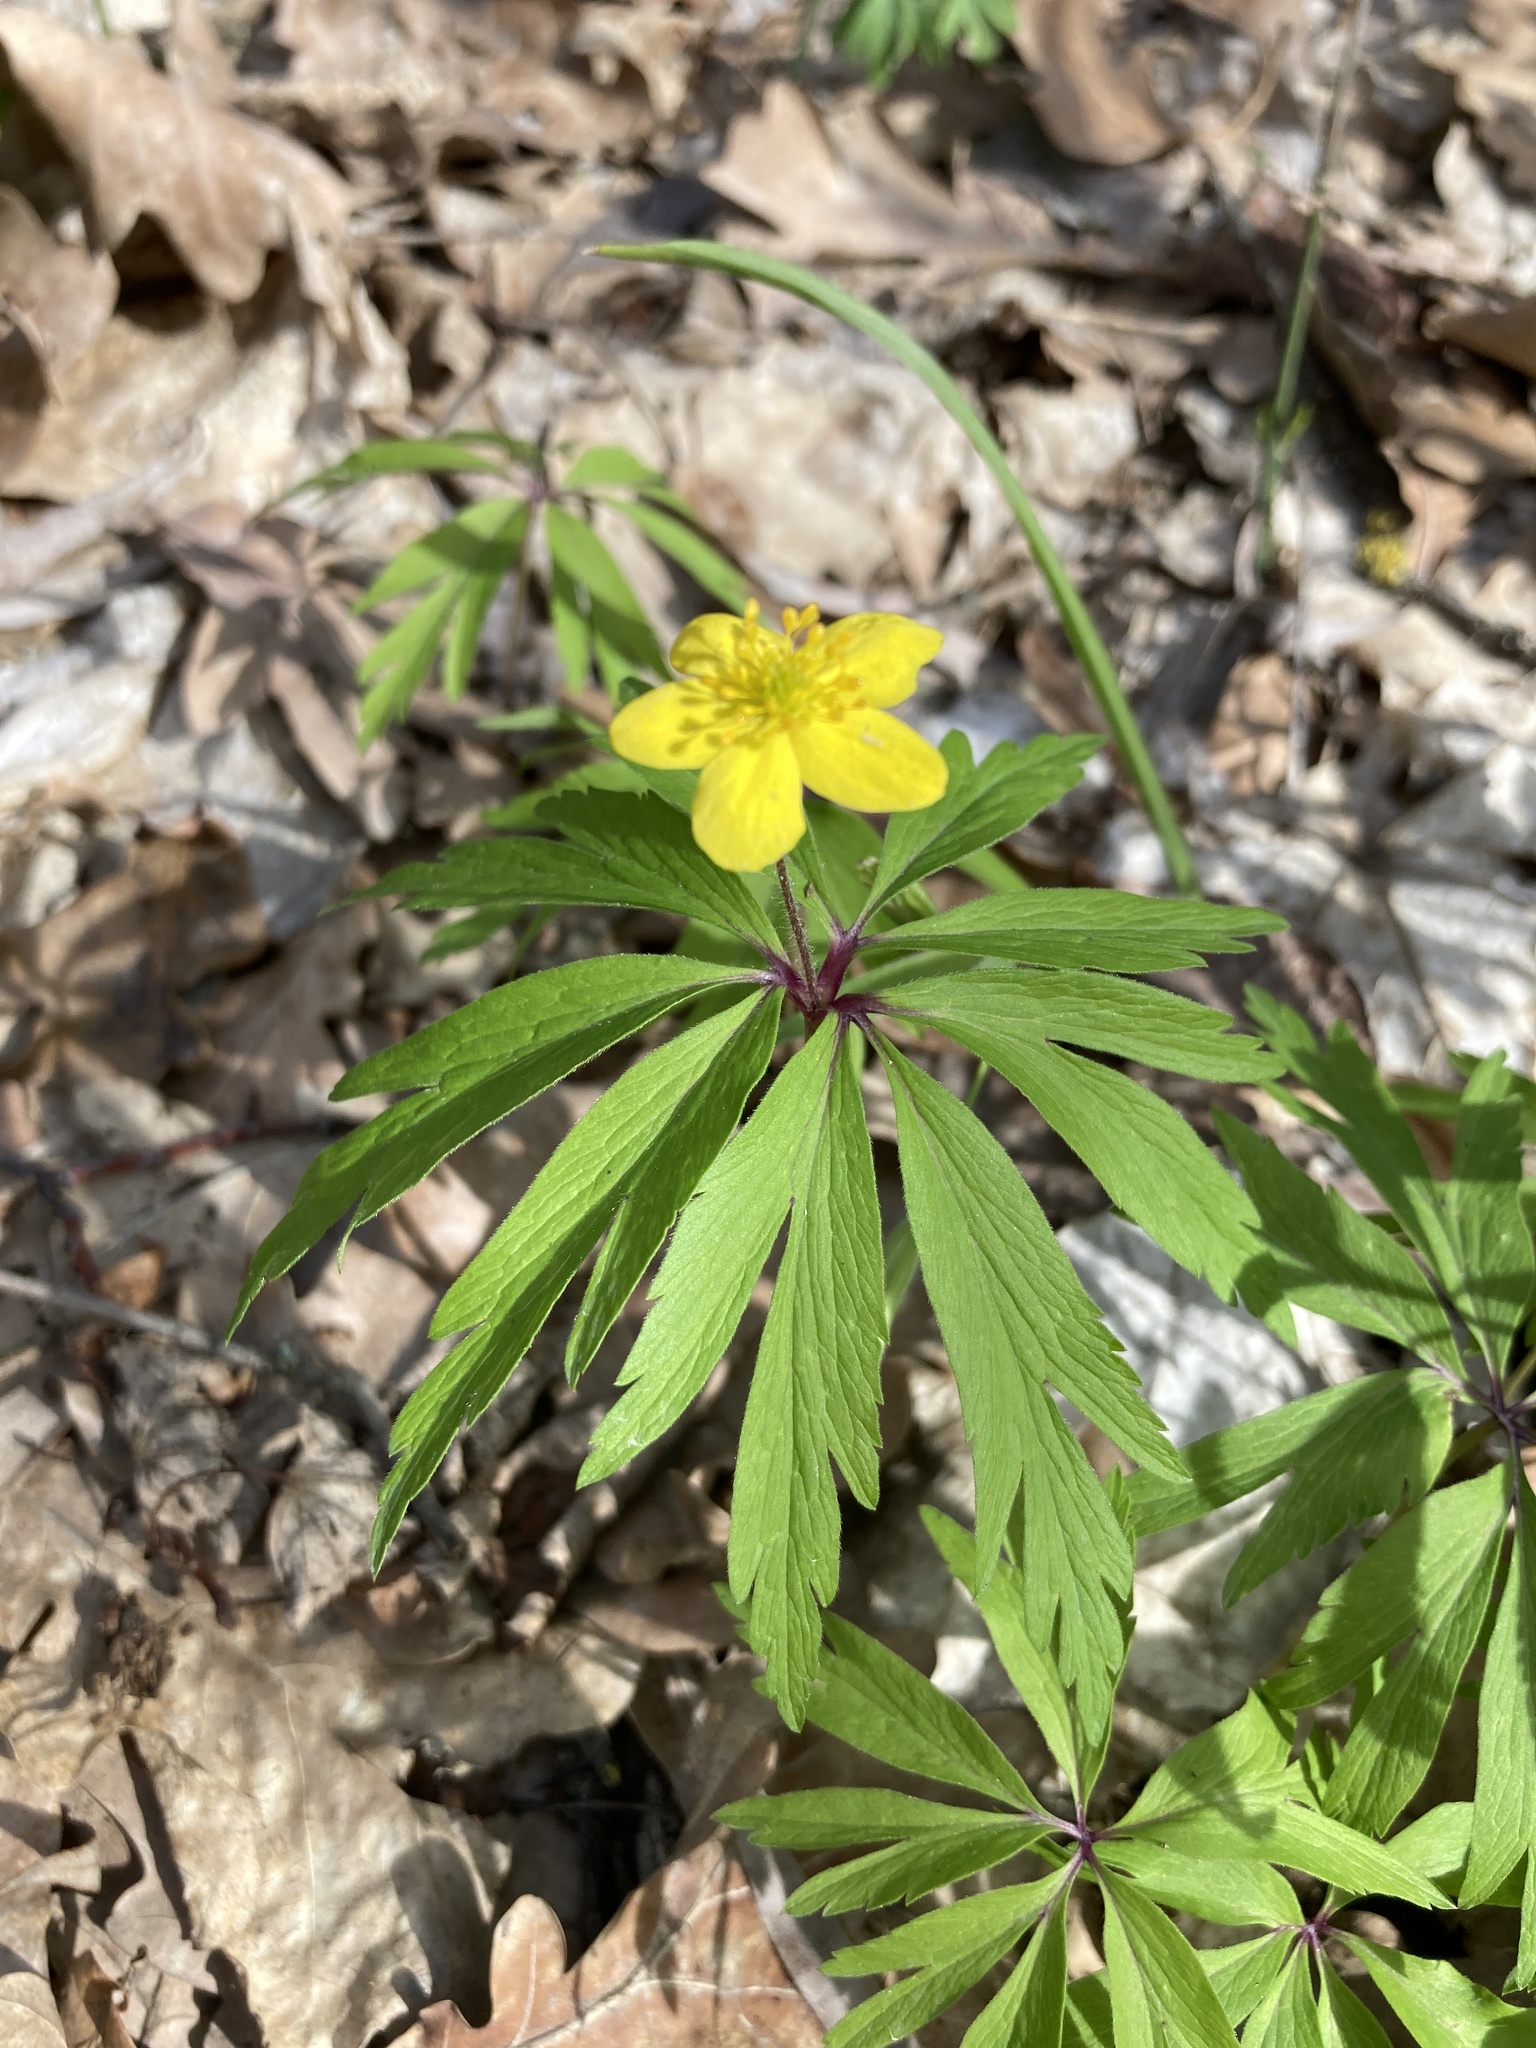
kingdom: Plantae
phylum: Tracheophyta
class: Magnoliopsida
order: Ranunculales
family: Ranunculaceae
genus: Anemone
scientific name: Anemone ranunculoides
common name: Yellow anemone
